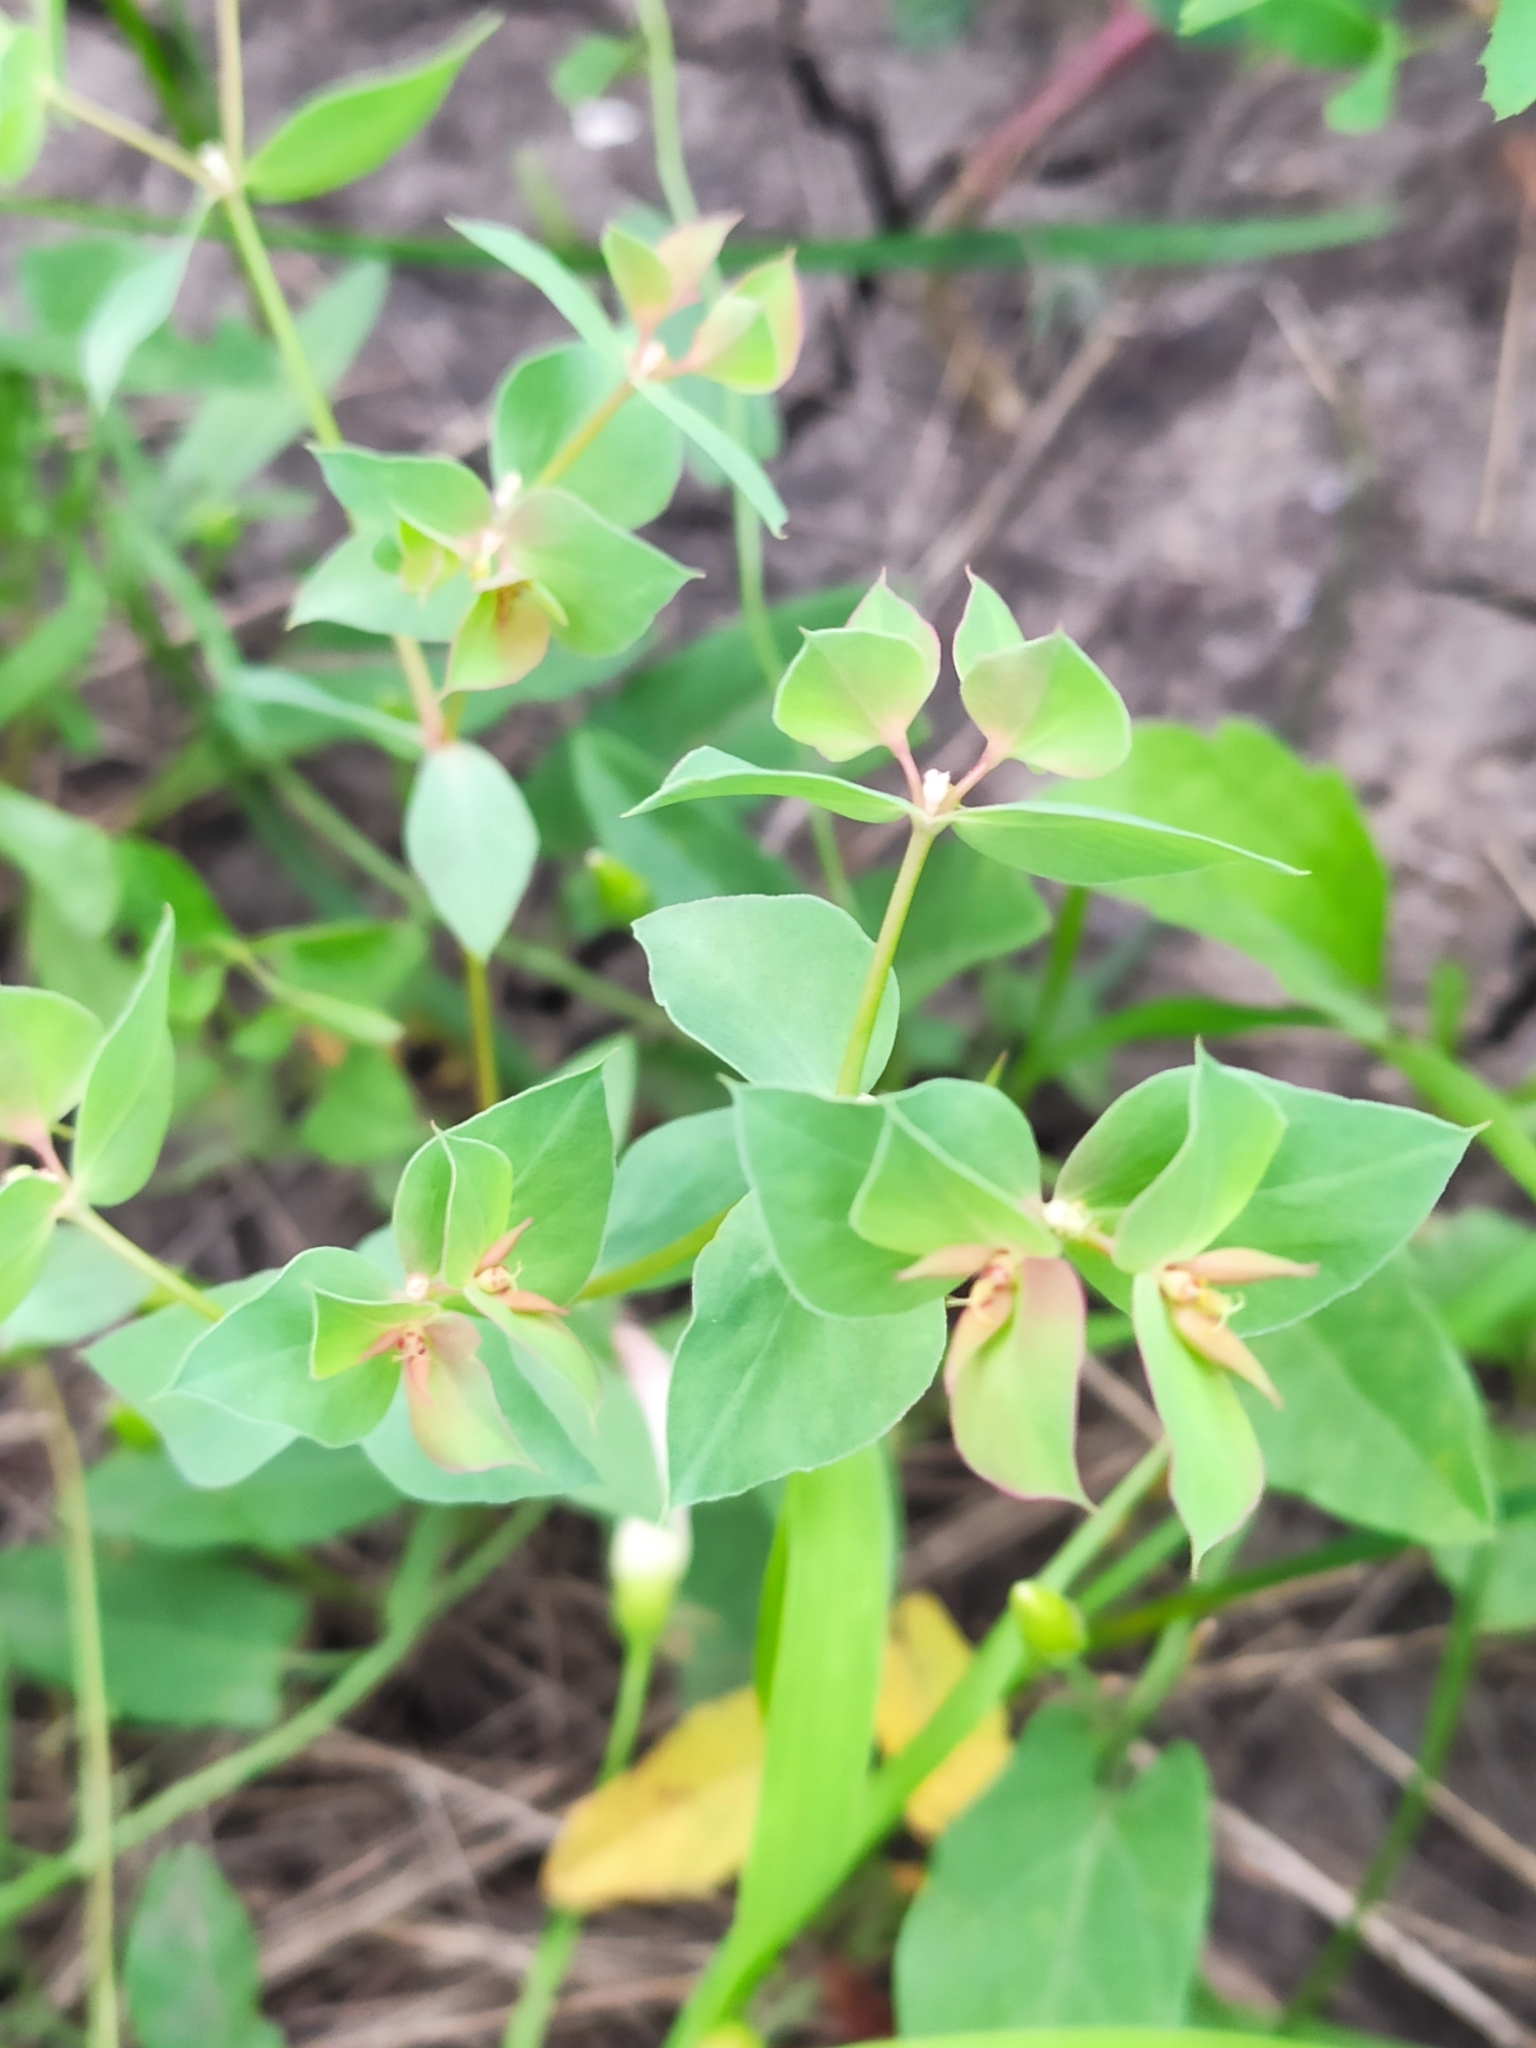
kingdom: Plantae
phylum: Tracheophyta
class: Magnoliopsida
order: Malpighiales
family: Euphorbiaceae
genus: Euphorbia
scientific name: Euphorbia falcata
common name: Sickle spurge
